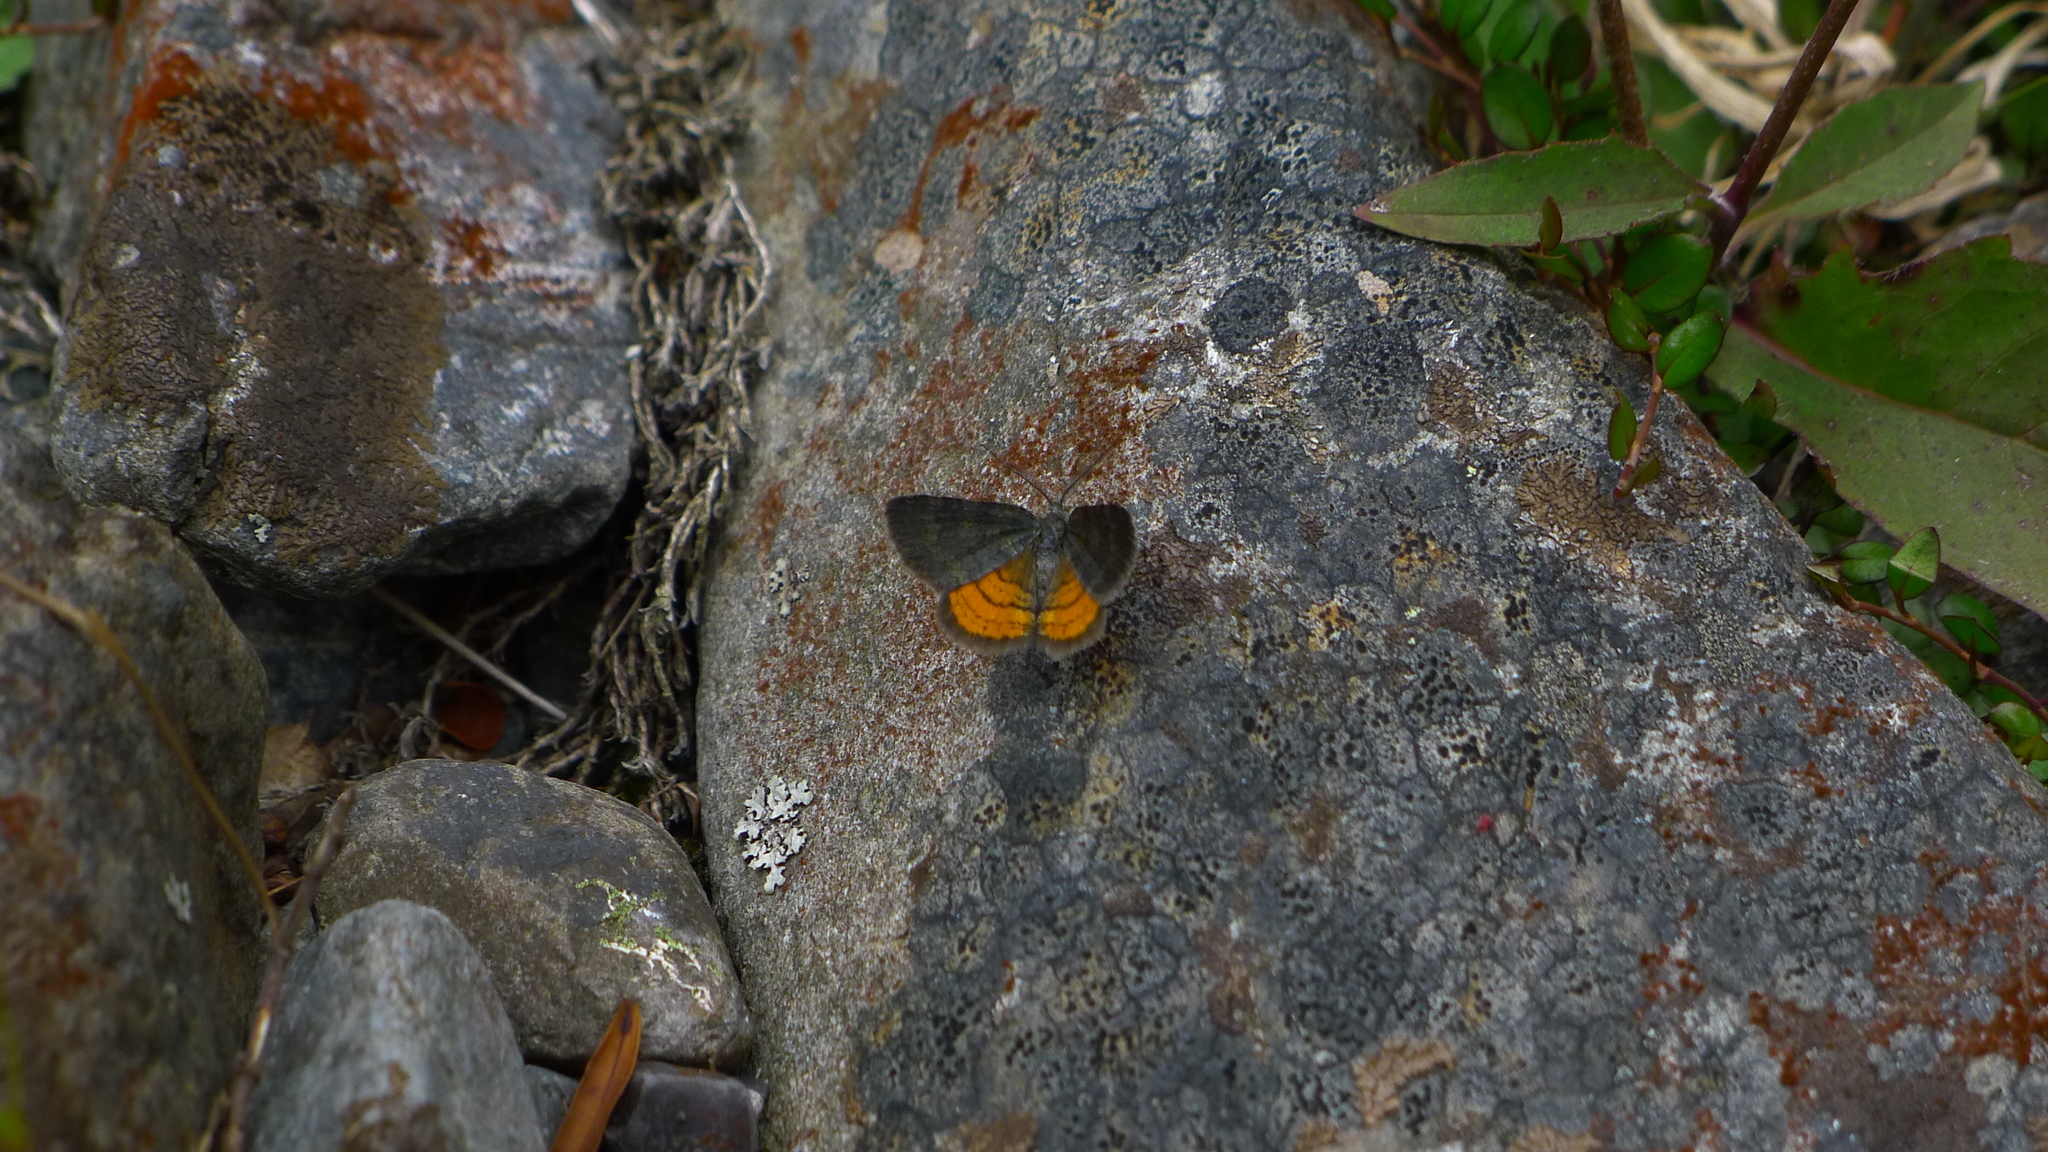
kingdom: Animalia
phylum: Arthropoda
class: Insecta
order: Lepidoptera
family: Geometridae
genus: Paranotoreas
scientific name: Paranotoreas brephosata
